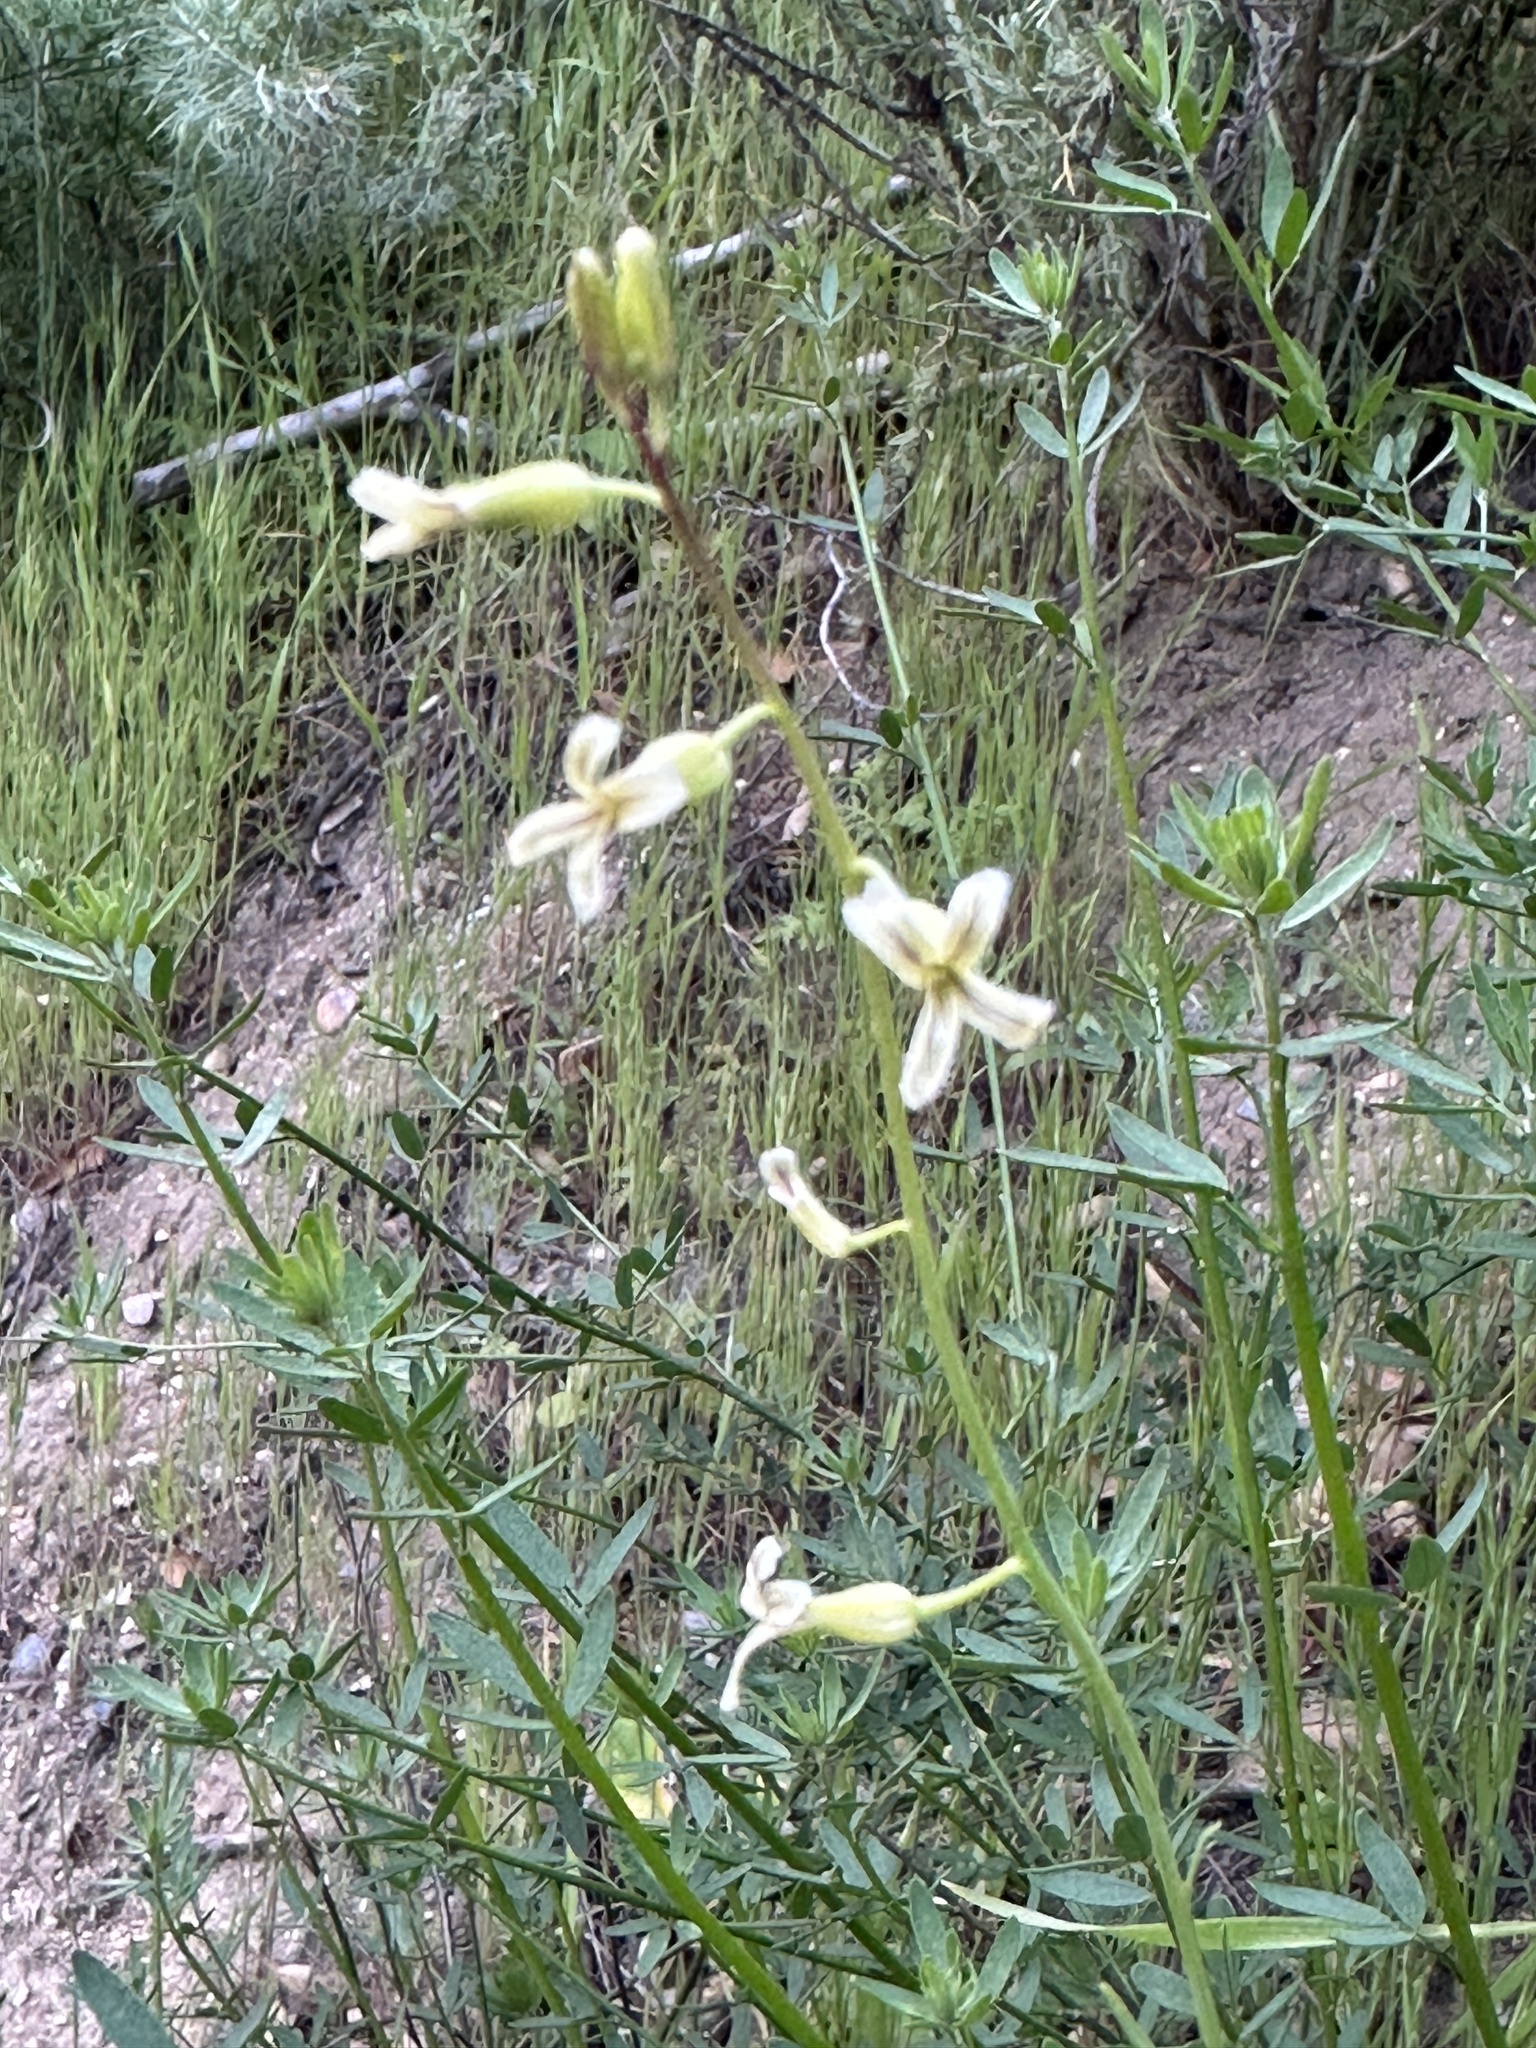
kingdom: Plantae
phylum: Tracheophyta
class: Magnoliopsida
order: Brassicales
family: Brassicaceae
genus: Streptanthus
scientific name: Streptanthus heterophyllus
